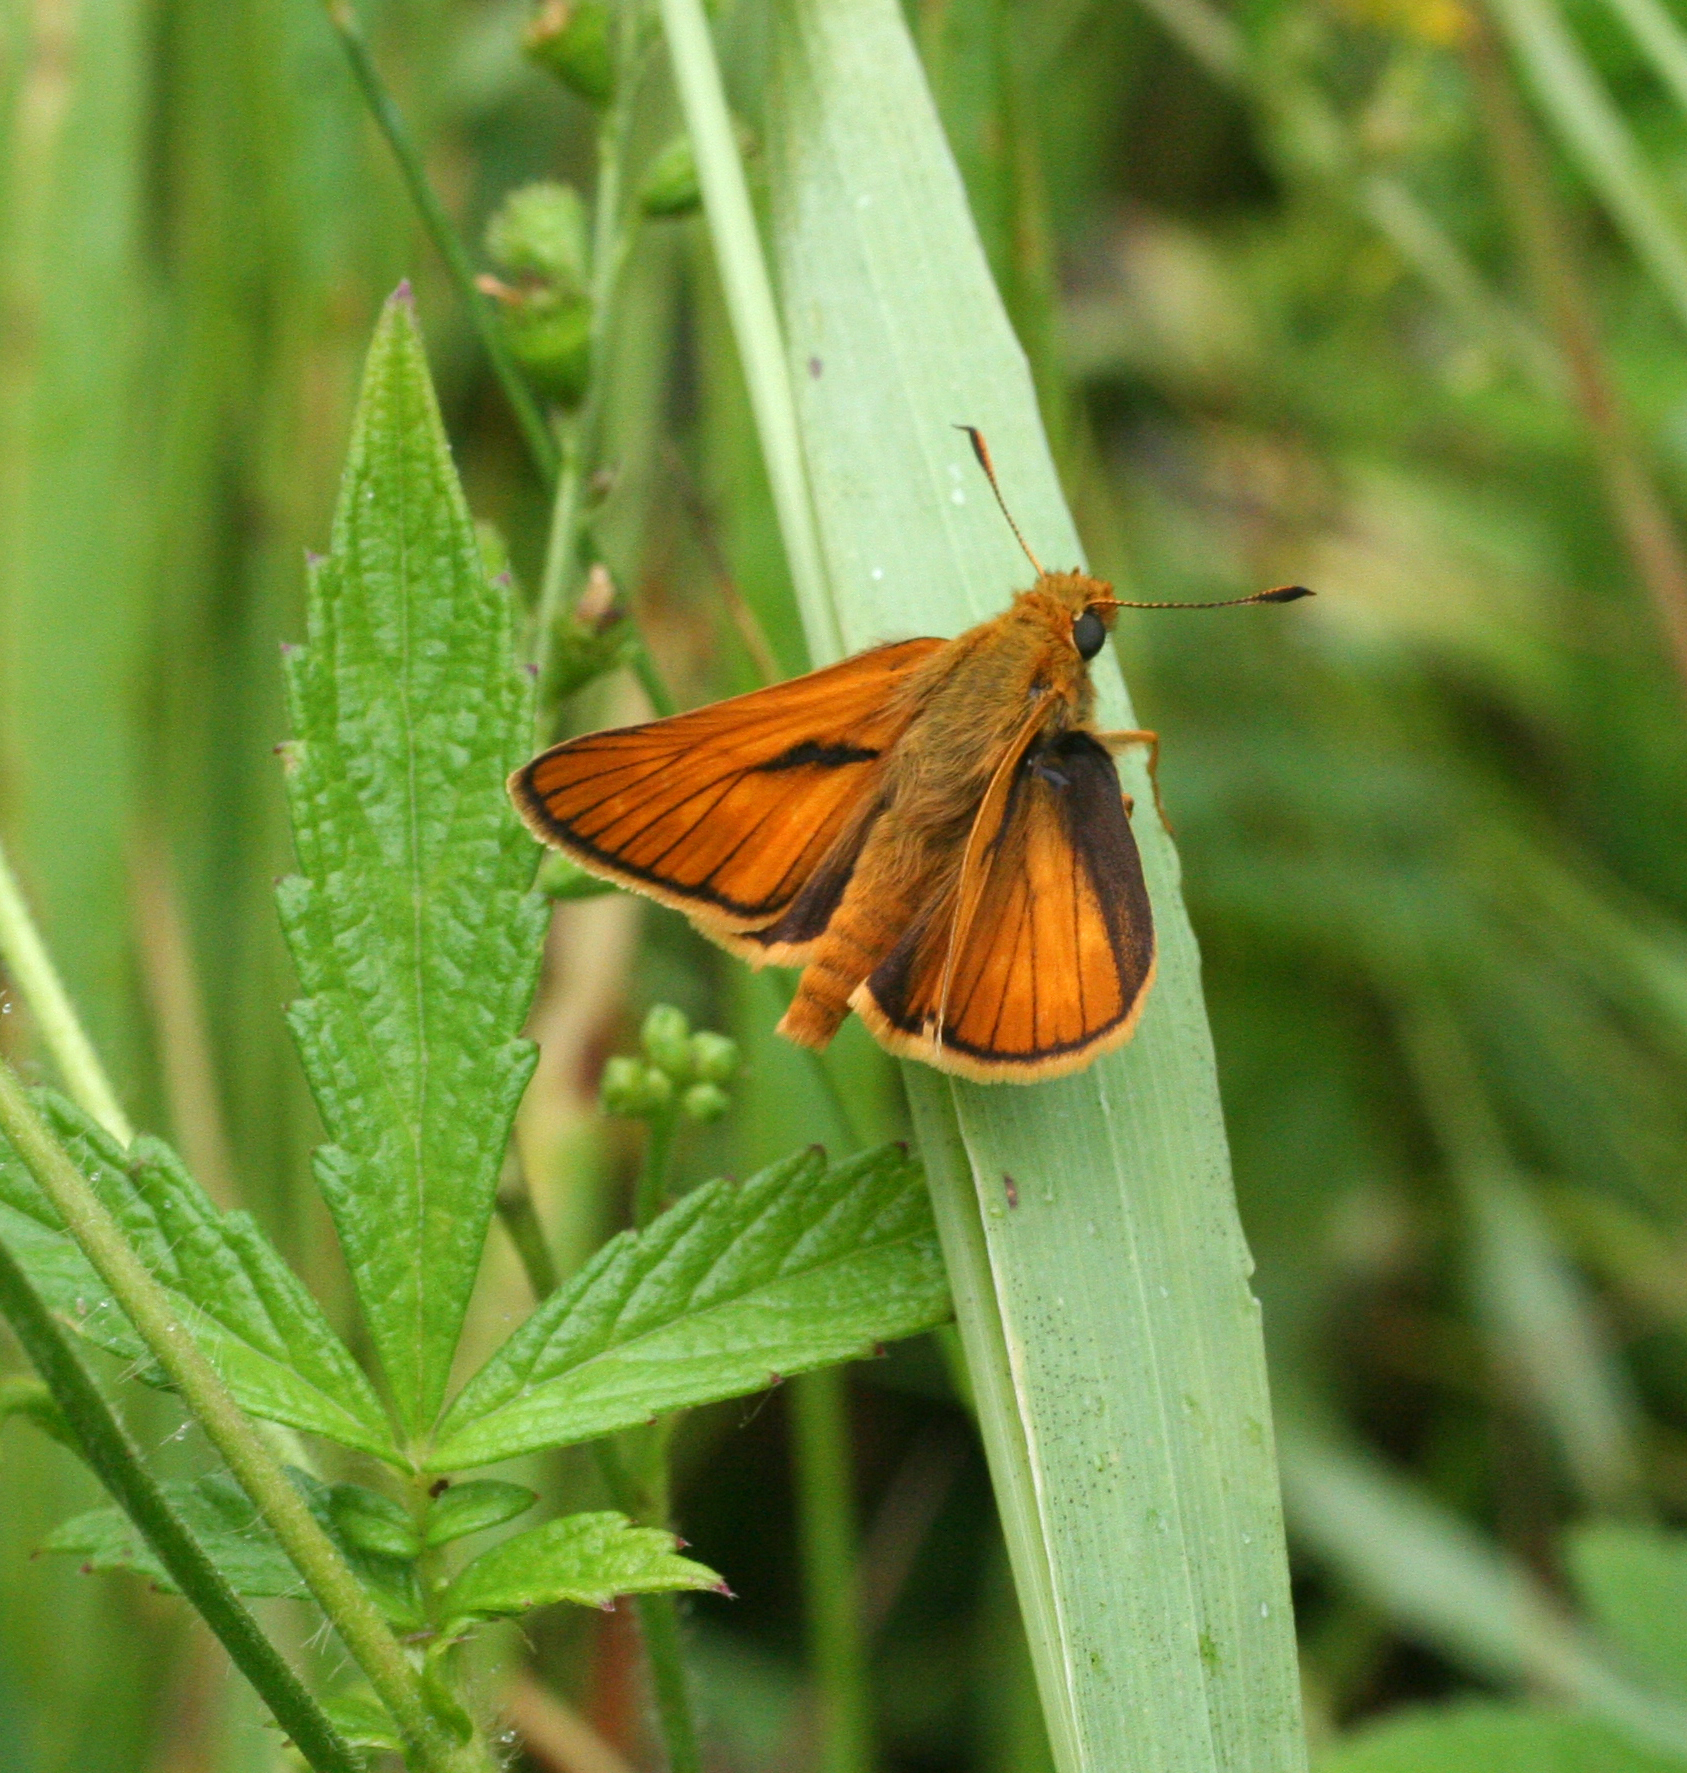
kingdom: Animalia
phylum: Arthropoda
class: Insecta
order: Lepidoptera
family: Hesperiidae
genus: Ochlodes
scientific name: Ochlodes venata
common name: Large skipper
